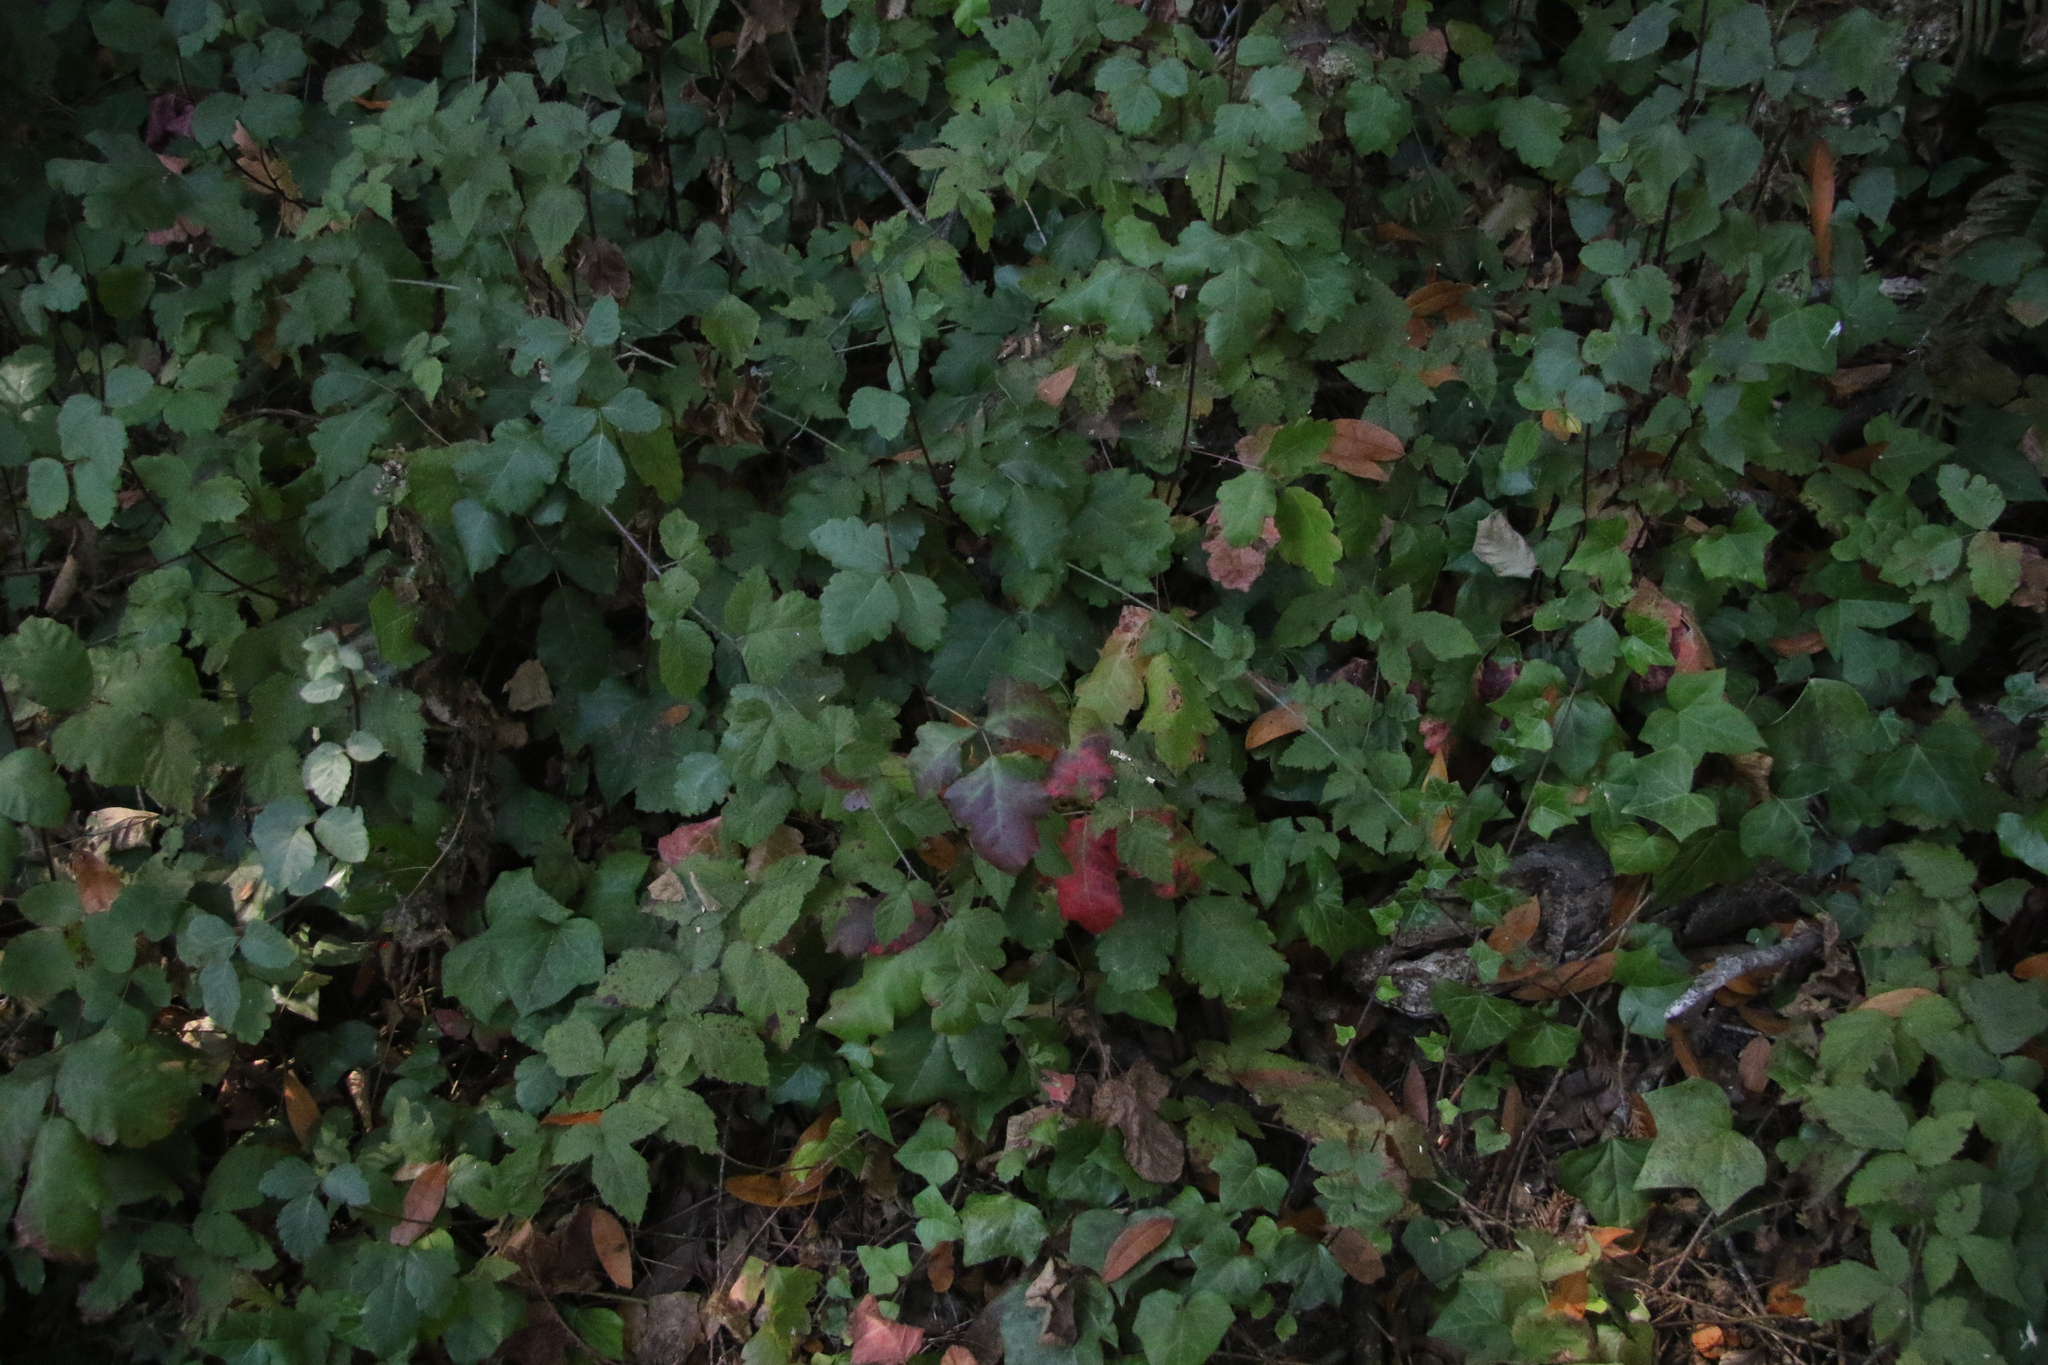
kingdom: Plantae
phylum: Tracheophyta
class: Magnoliopsida
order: Sapindales
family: Anacardiaceae
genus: Toxicodendron
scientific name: Toxicodendron diversilobum
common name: Pacific poison-oak
